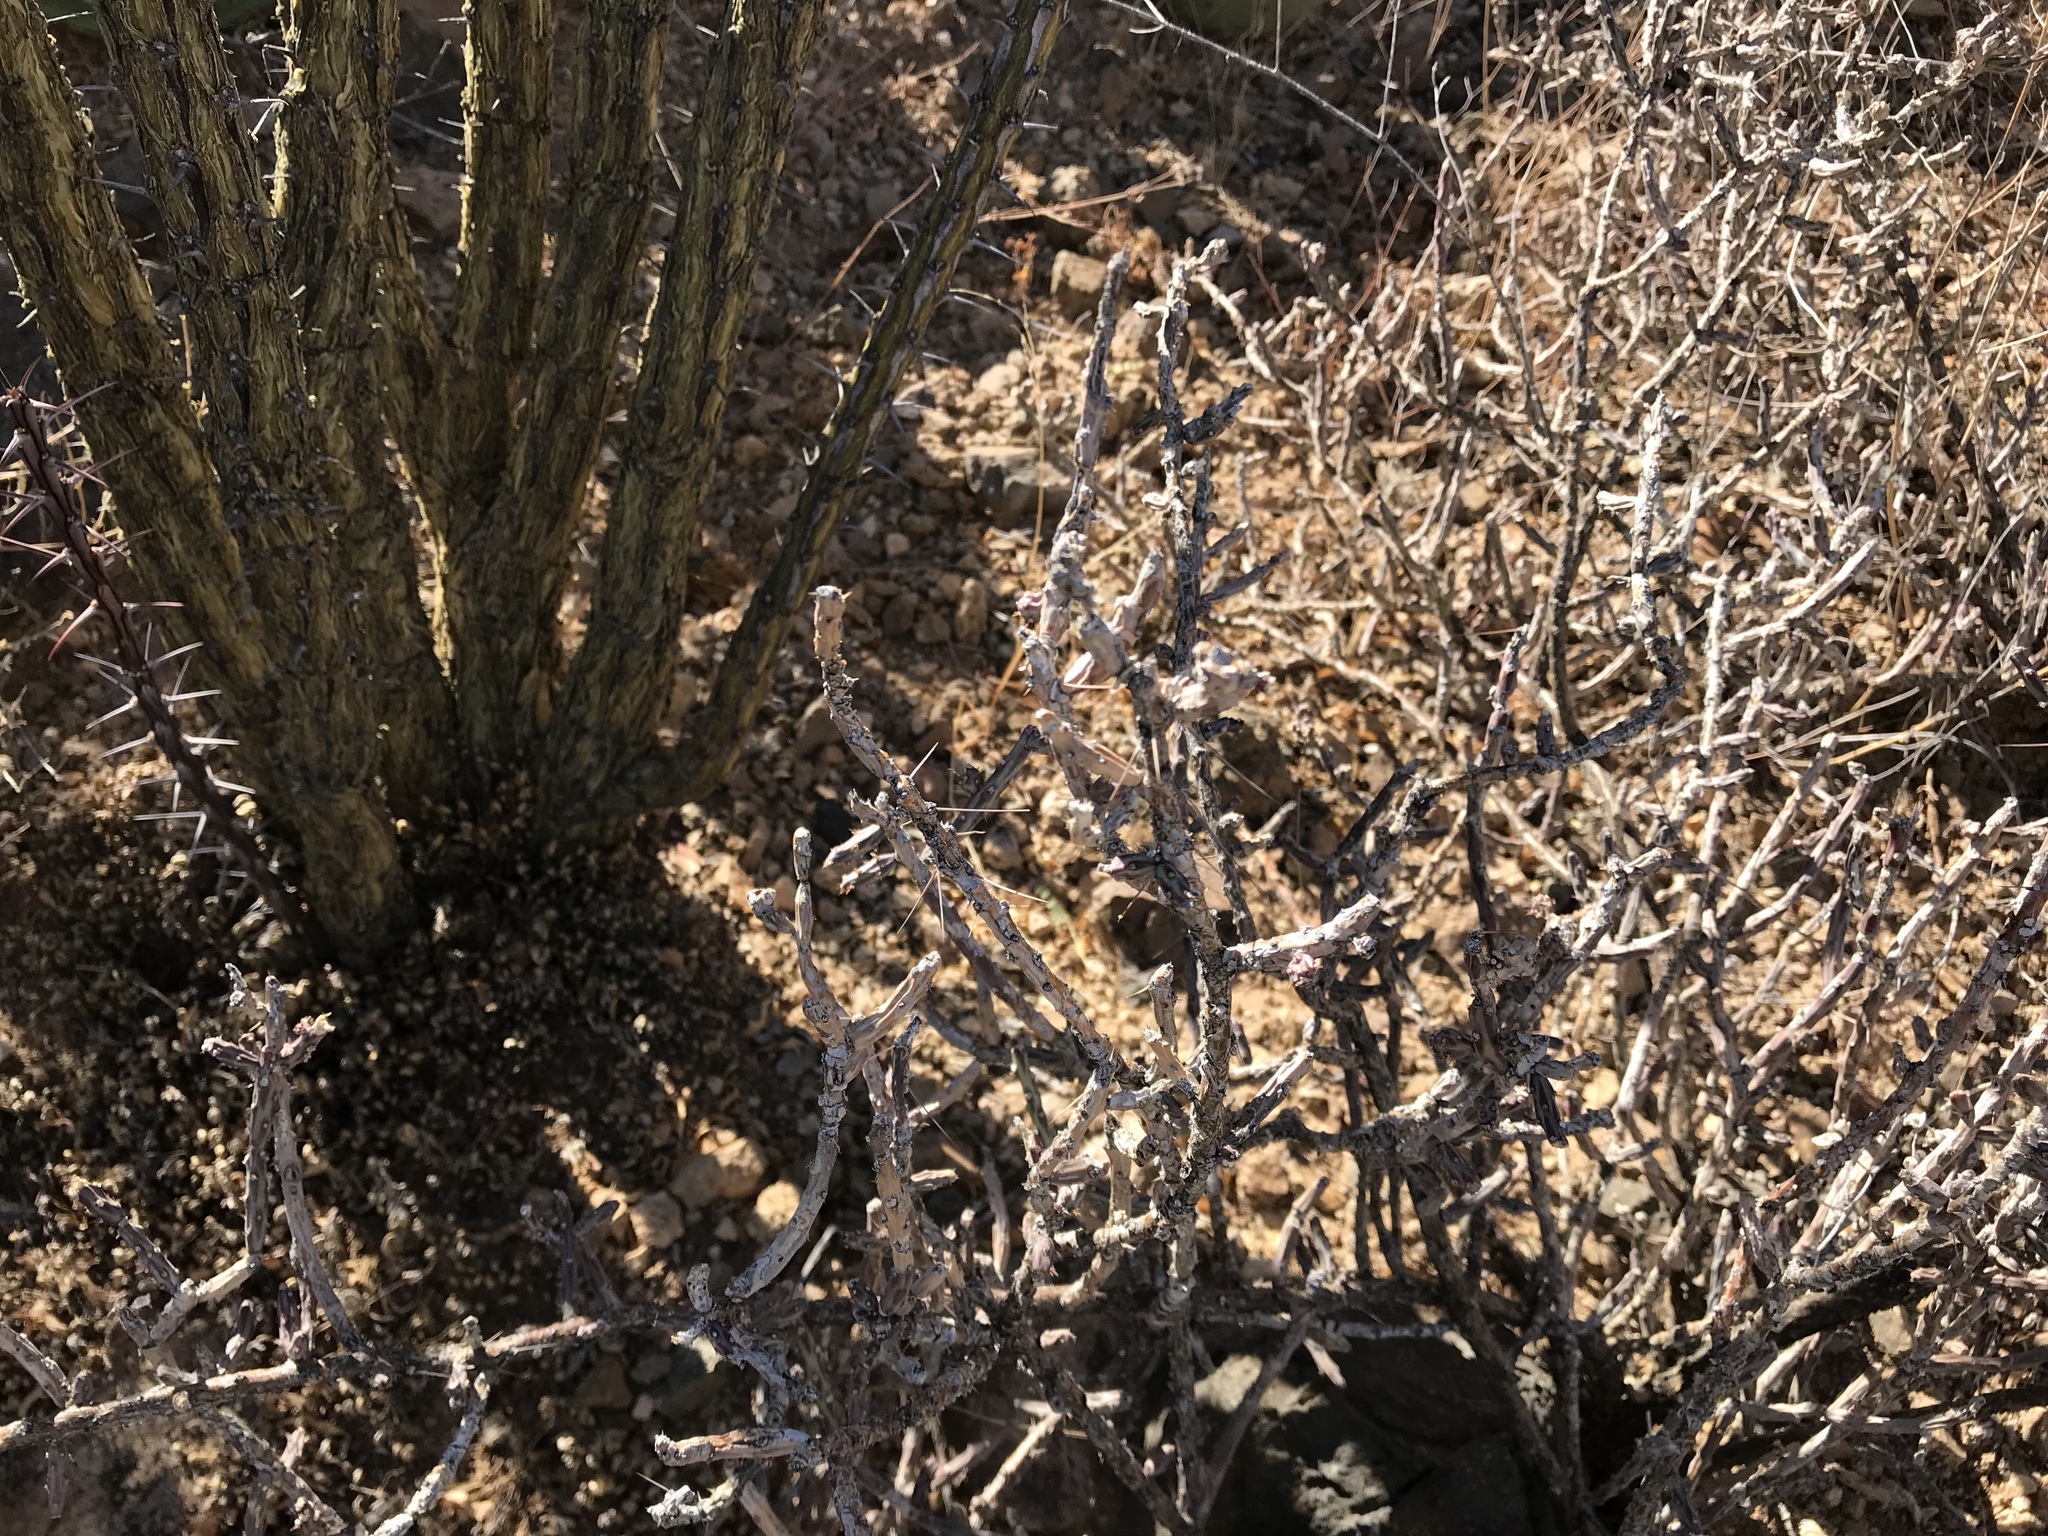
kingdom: Plantae
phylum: Tracheophyta
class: Magnoliopsida
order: Caryophyllales
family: Cactaceae
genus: Cylindropuntia
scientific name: Cylindropuntia leptocaulis
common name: Christmas cactus
